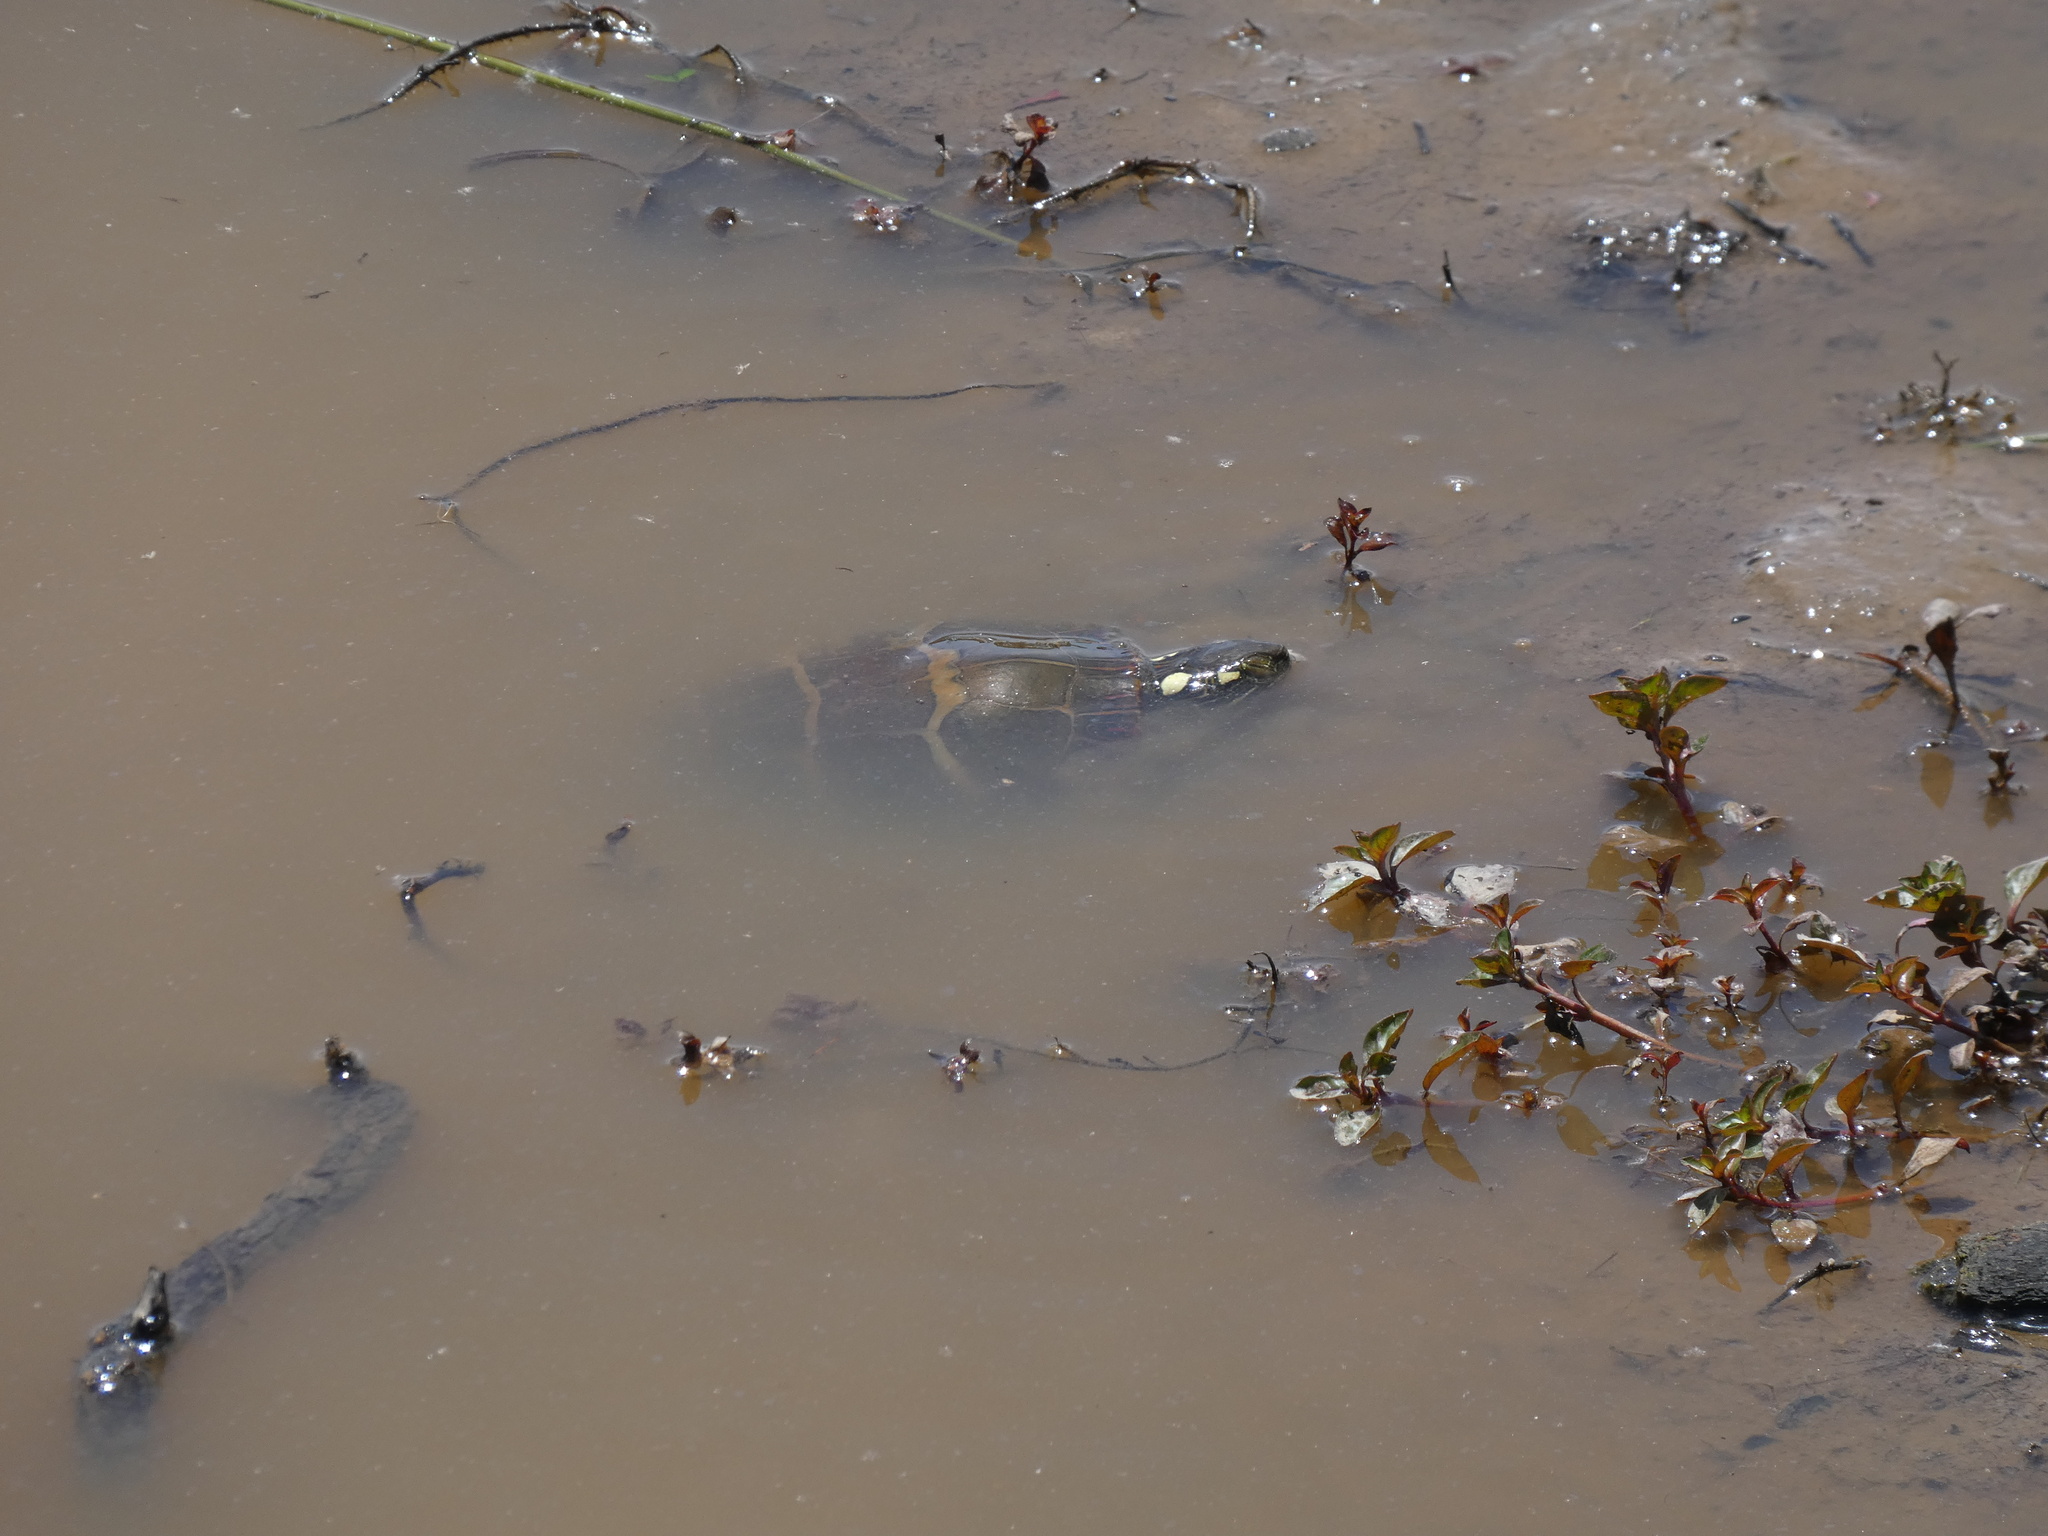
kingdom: Animalia
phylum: Chordata
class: Testudines
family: Emydidae
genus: Chrysemys
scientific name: Chrysemys picta
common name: Painted turtle
